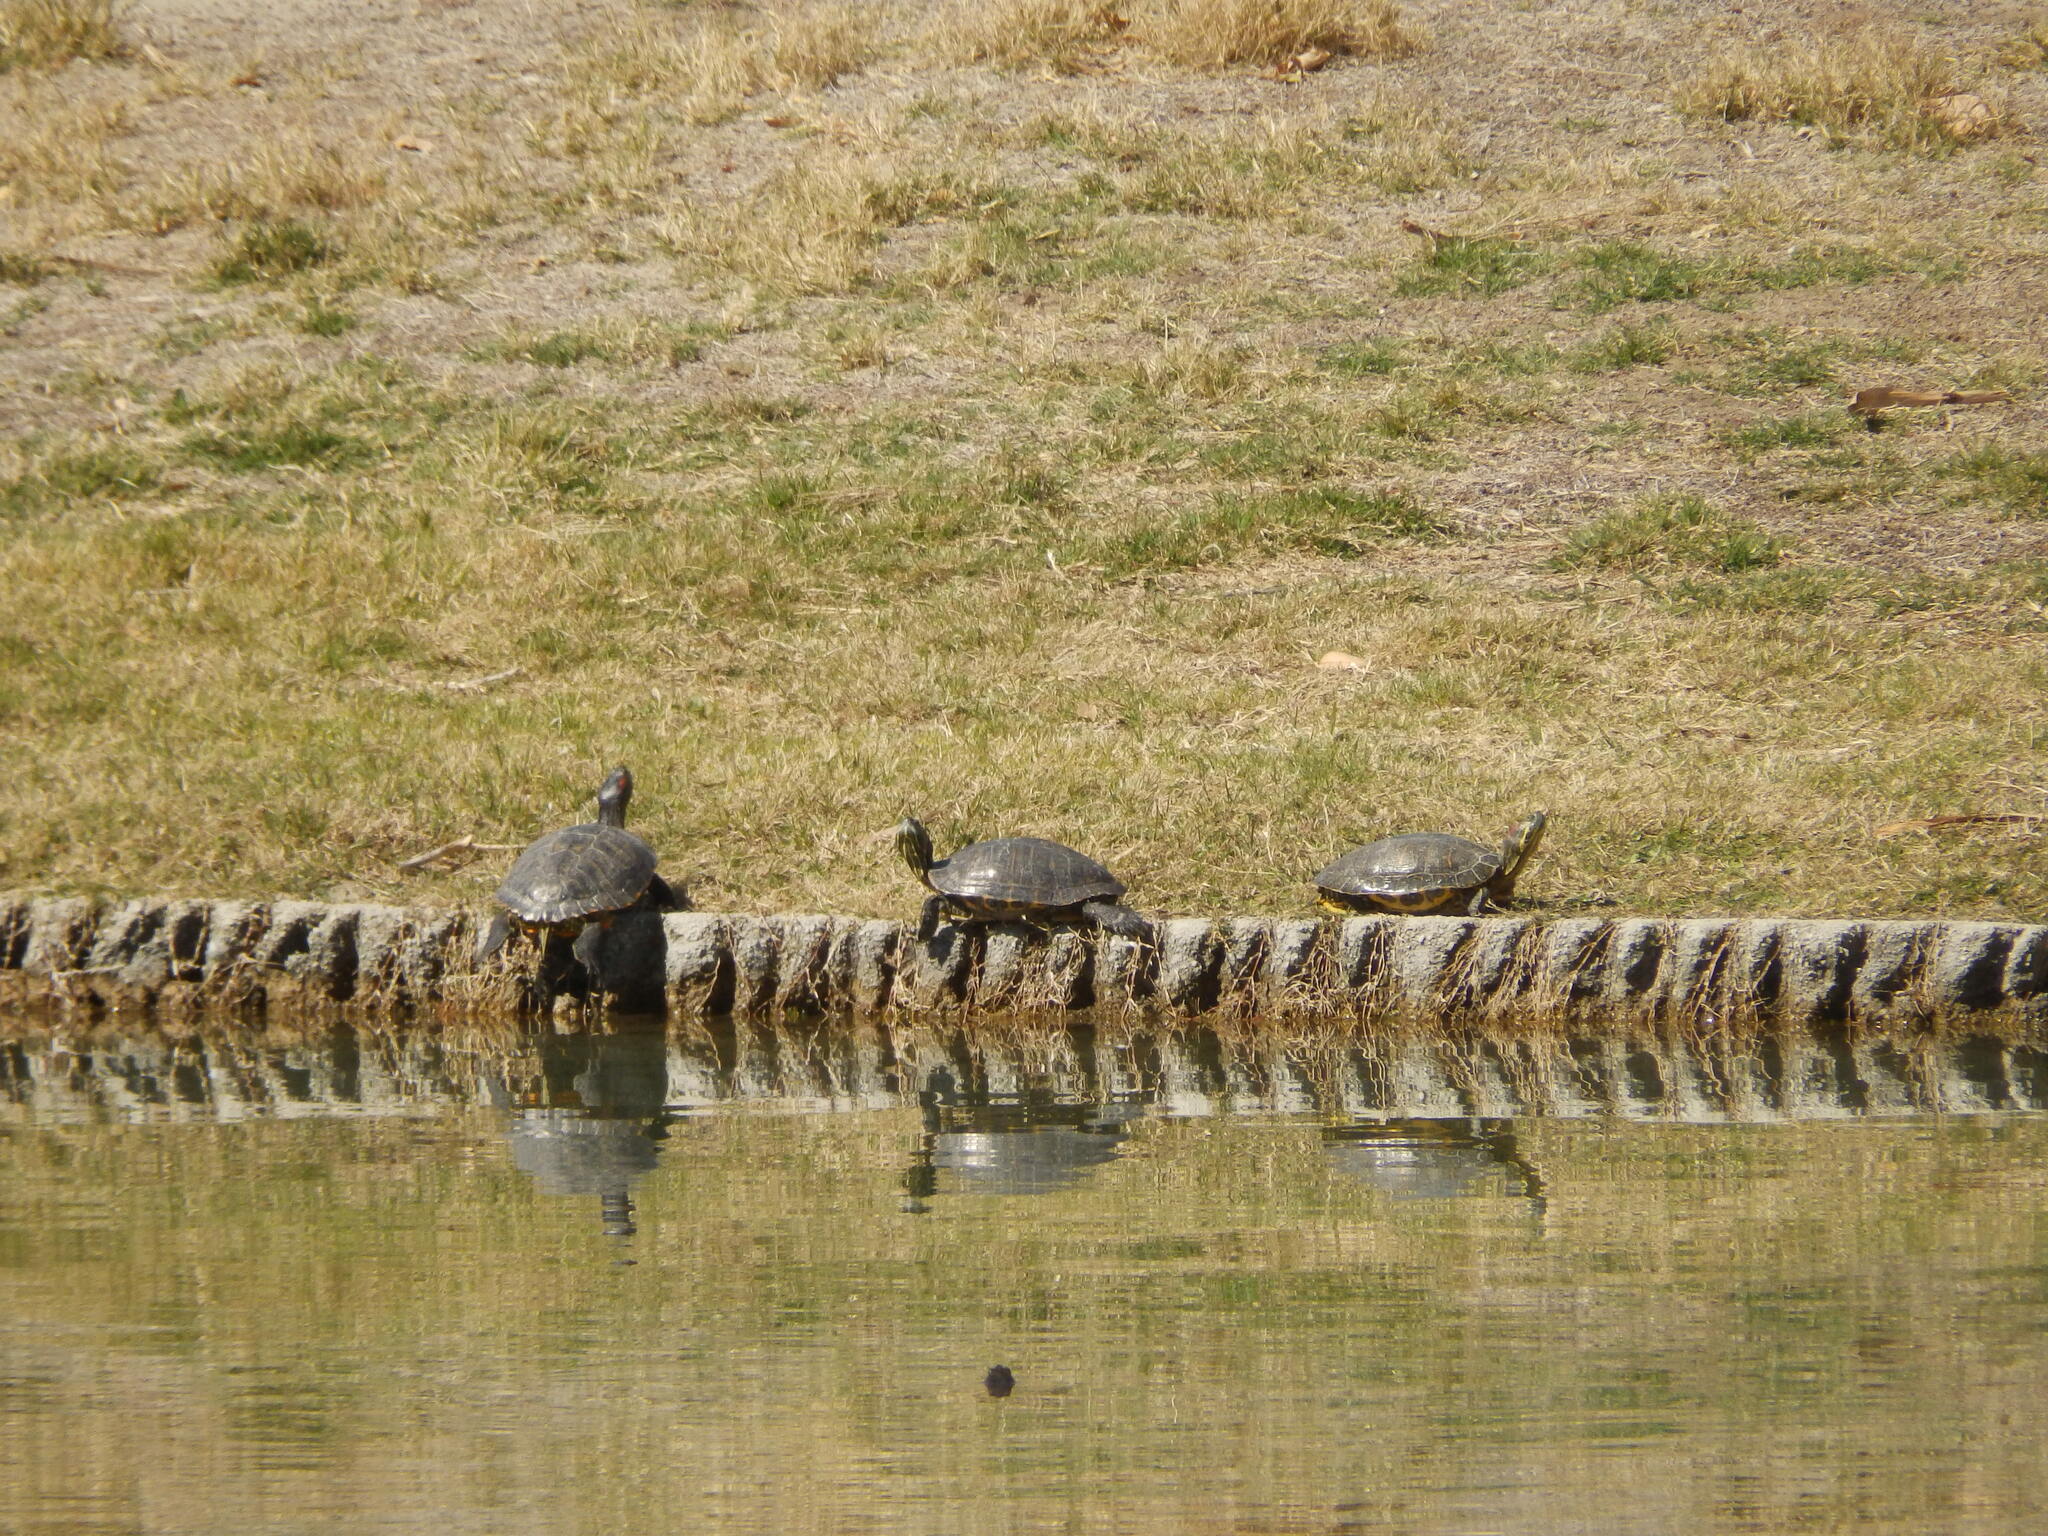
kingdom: Animalia
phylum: Chordata
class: Testudines
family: Emydidae
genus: Trachemys
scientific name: Trachemys scripta
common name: Slider
